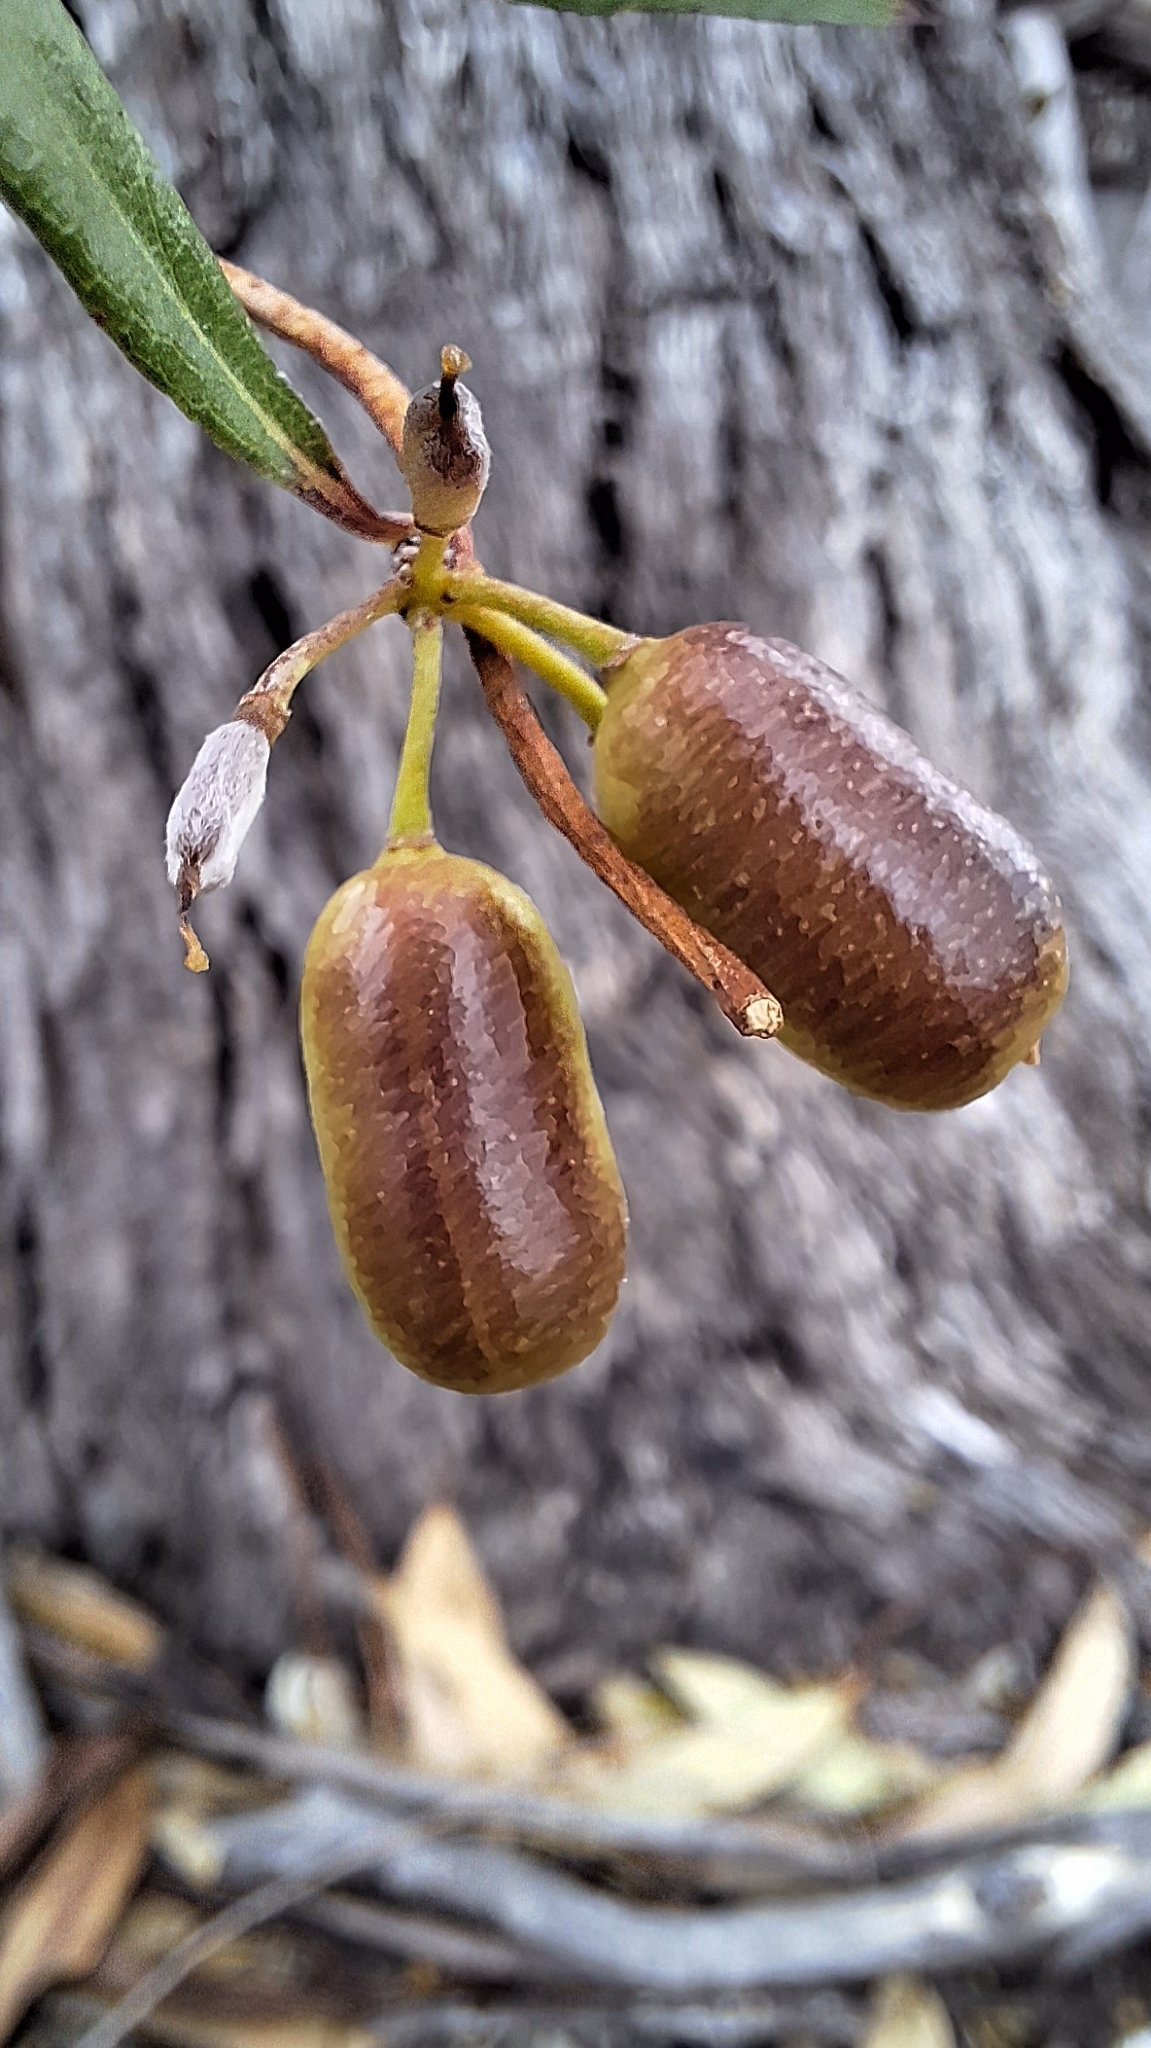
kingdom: Plantae
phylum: Tracheophyta
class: Magnoliopsida
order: Apiales
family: Pittosporaceae
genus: Billardiera
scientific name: Billardiera cymosa
